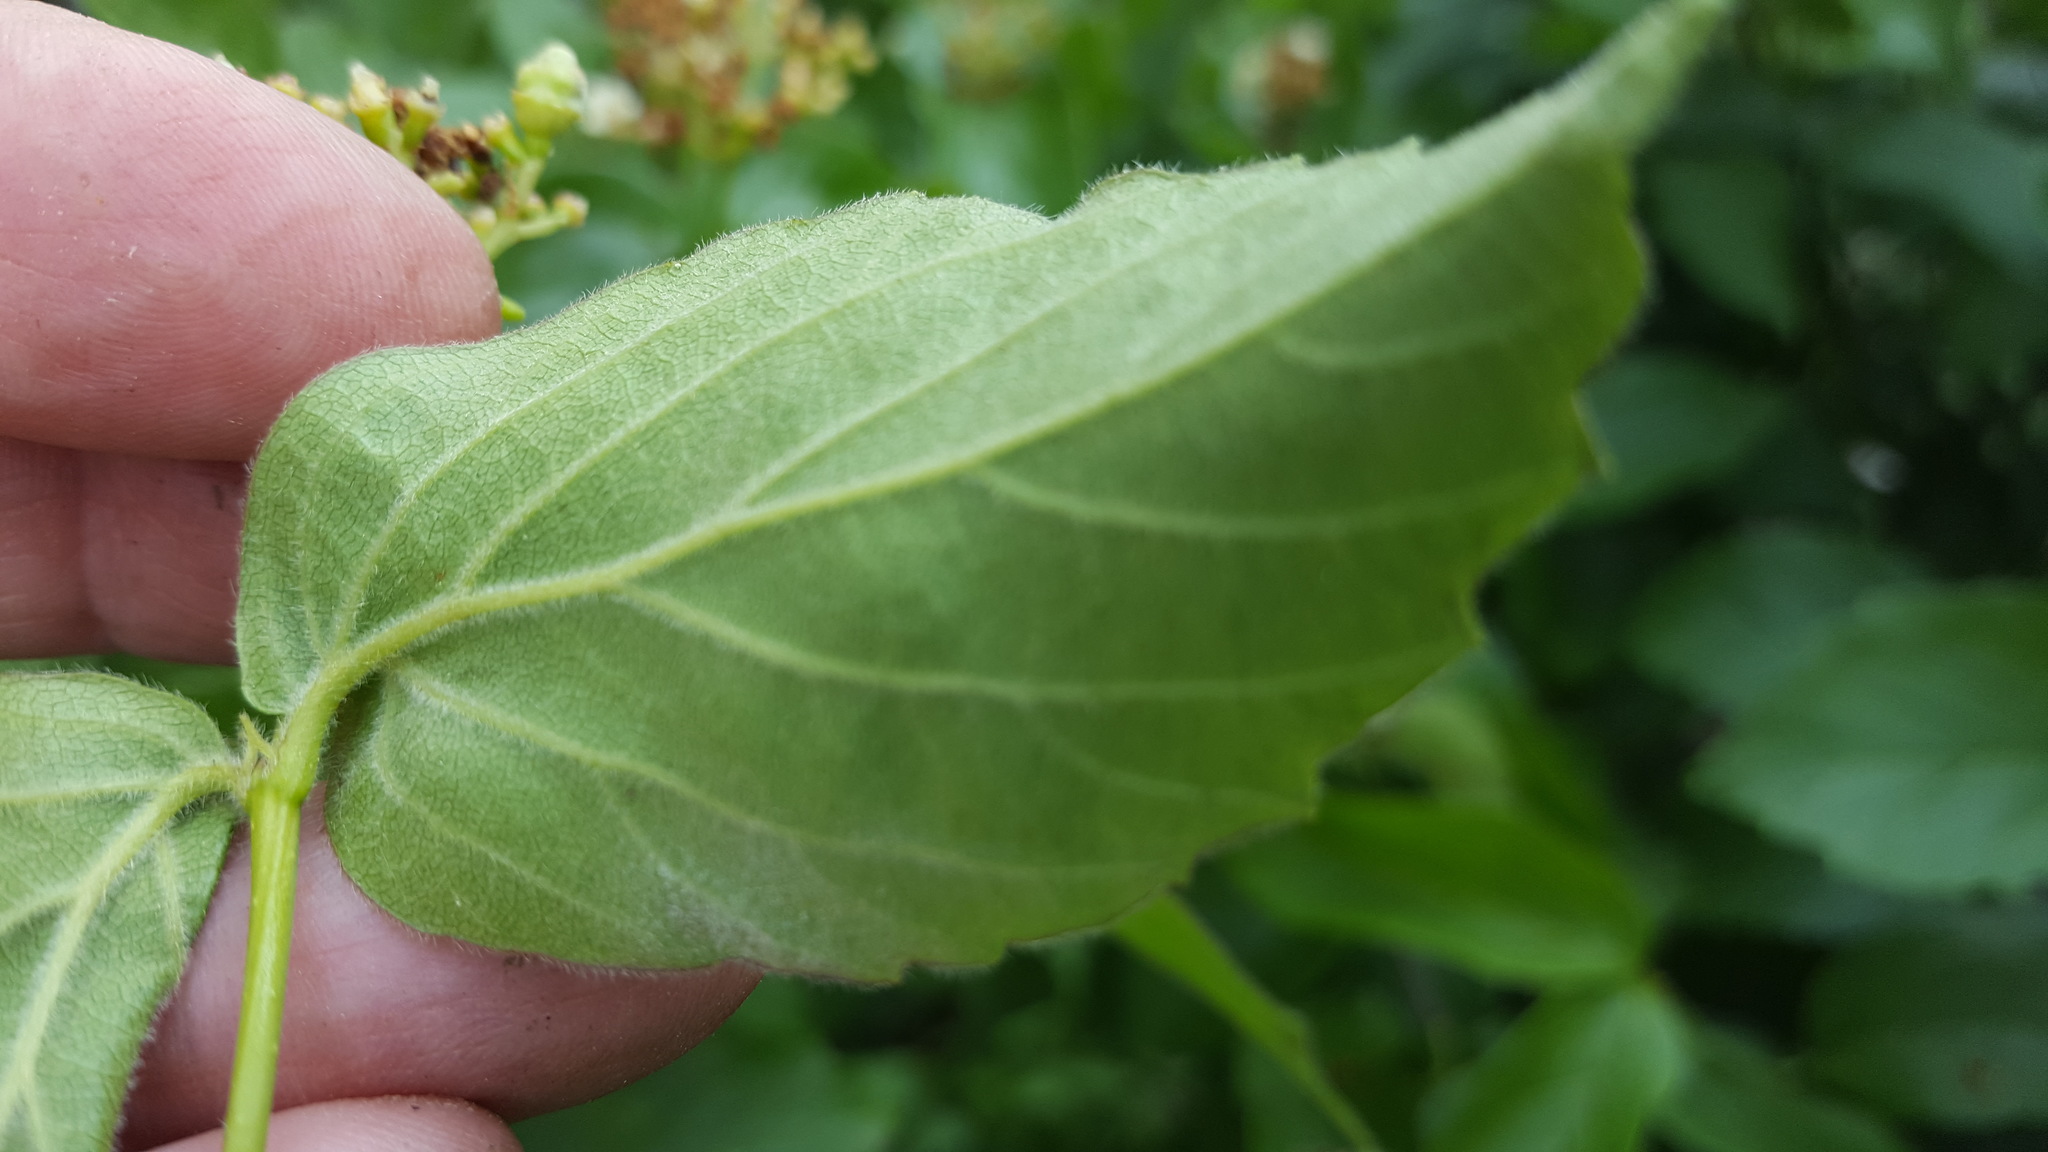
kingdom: Plantae
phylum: Tracheophyta
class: Magnoliopsida
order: Dipsacales
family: Viburnaceae
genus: Viburnum
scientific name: Viburnum rafinesqueanum
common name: Downy arrow-wood
